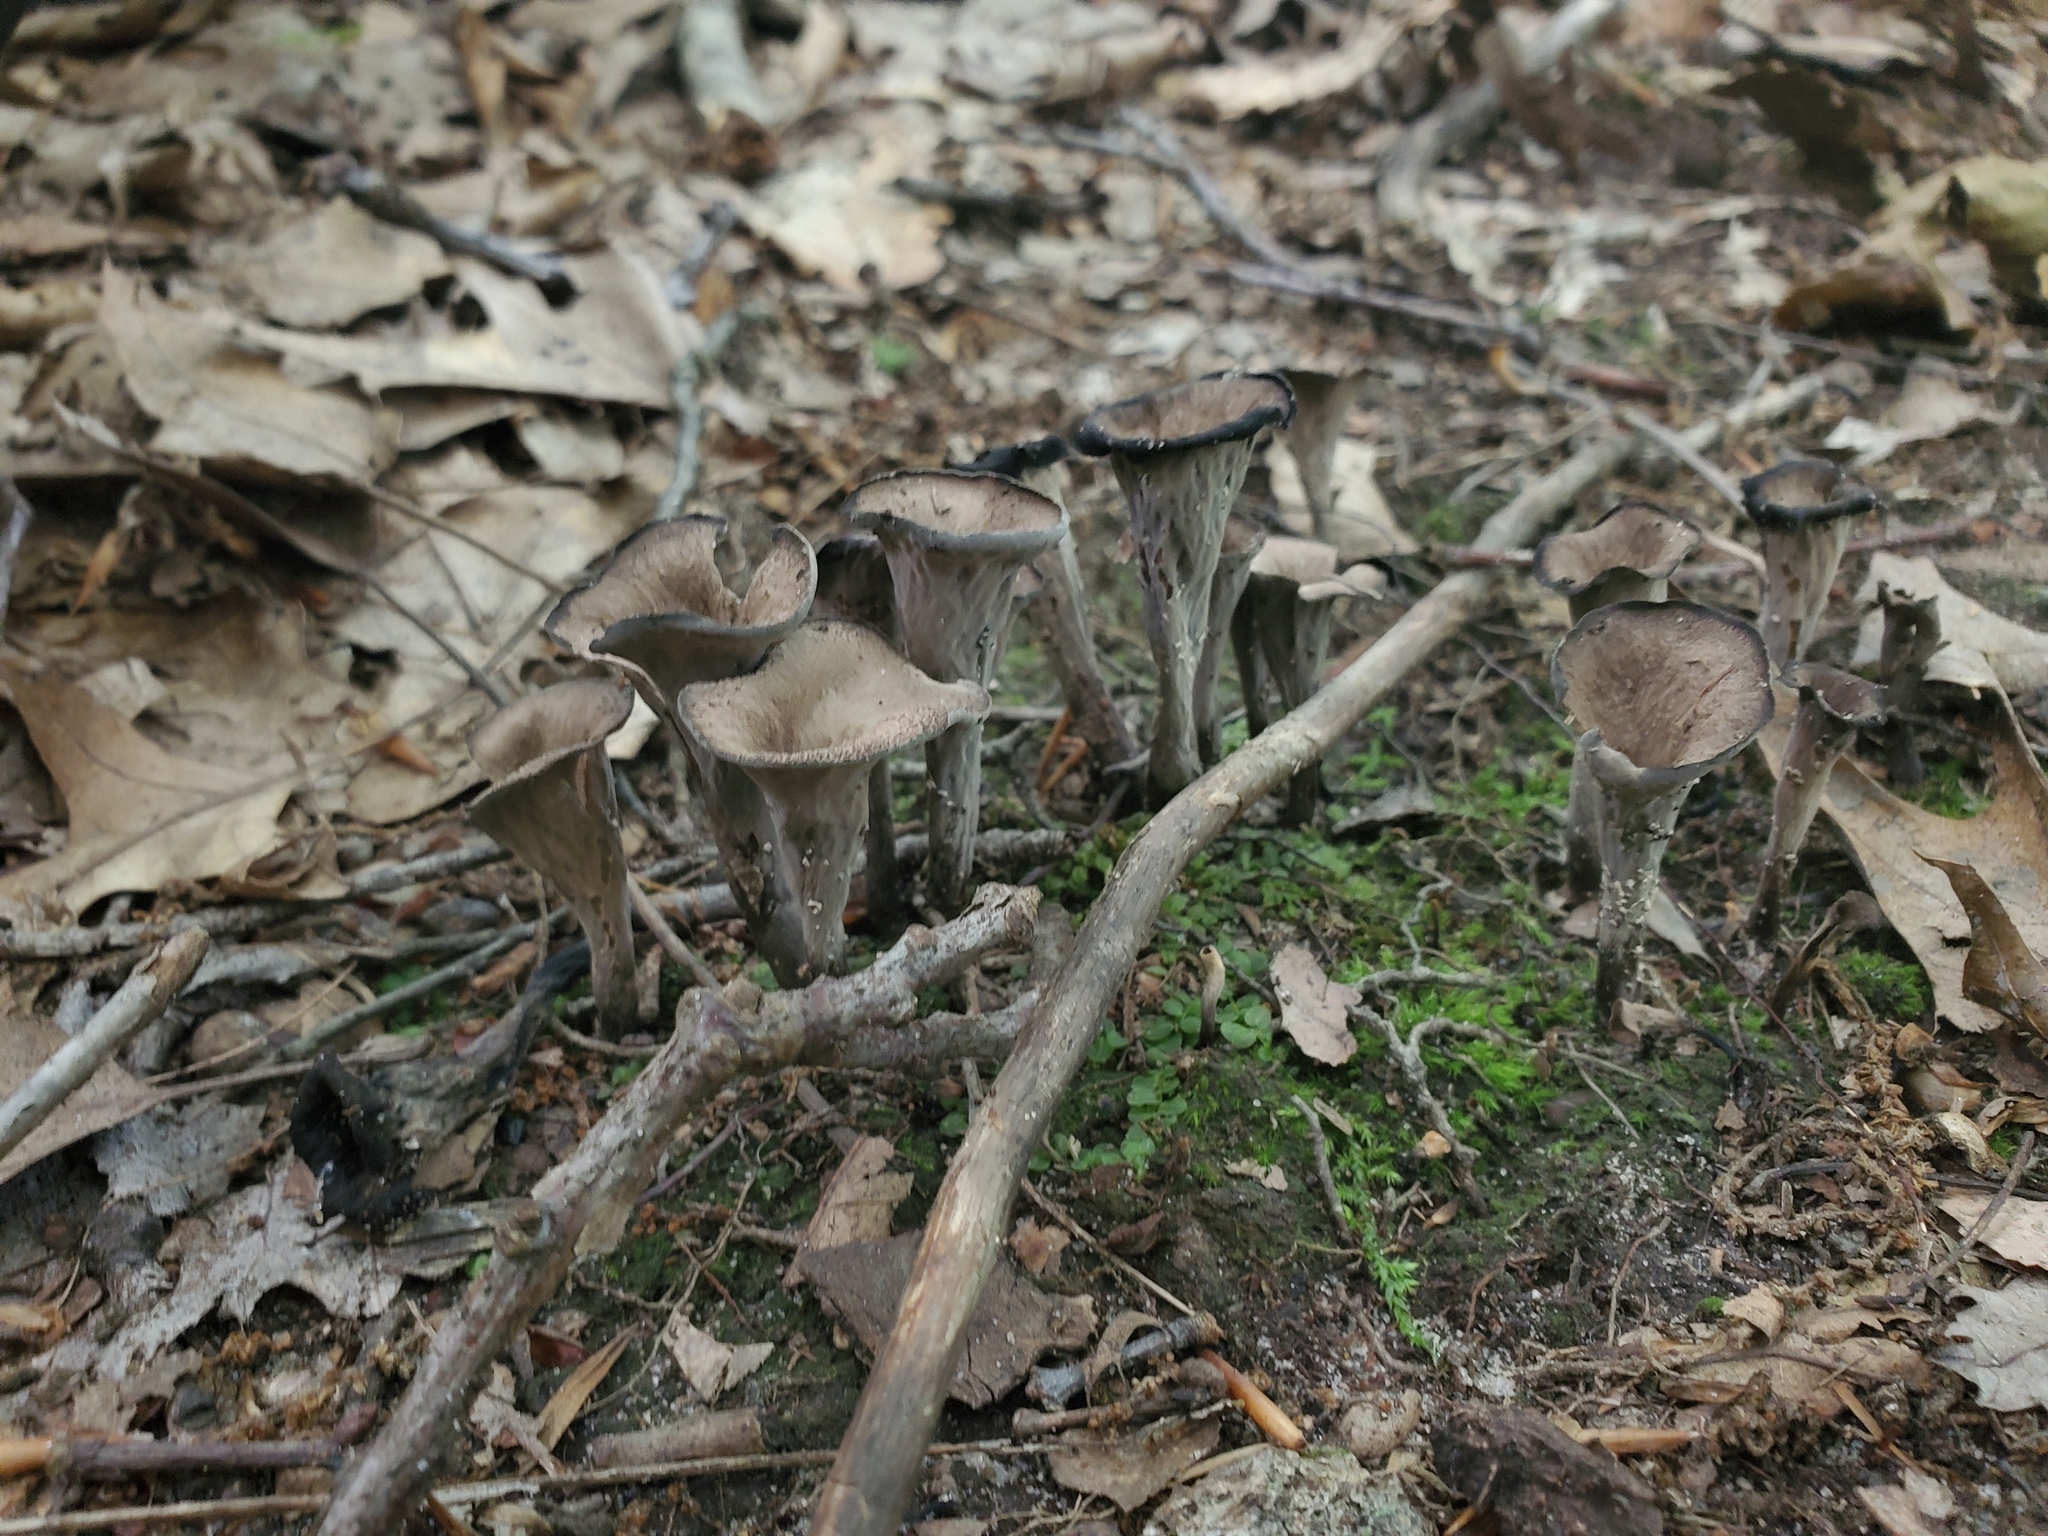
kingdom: Fungi
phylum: Basidiomycota
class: Agaricomycetes
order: Cantharellales
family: Hydnaceae
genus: Craterellus
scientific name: Craterellus cornucopioides
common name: Horn of plenty
